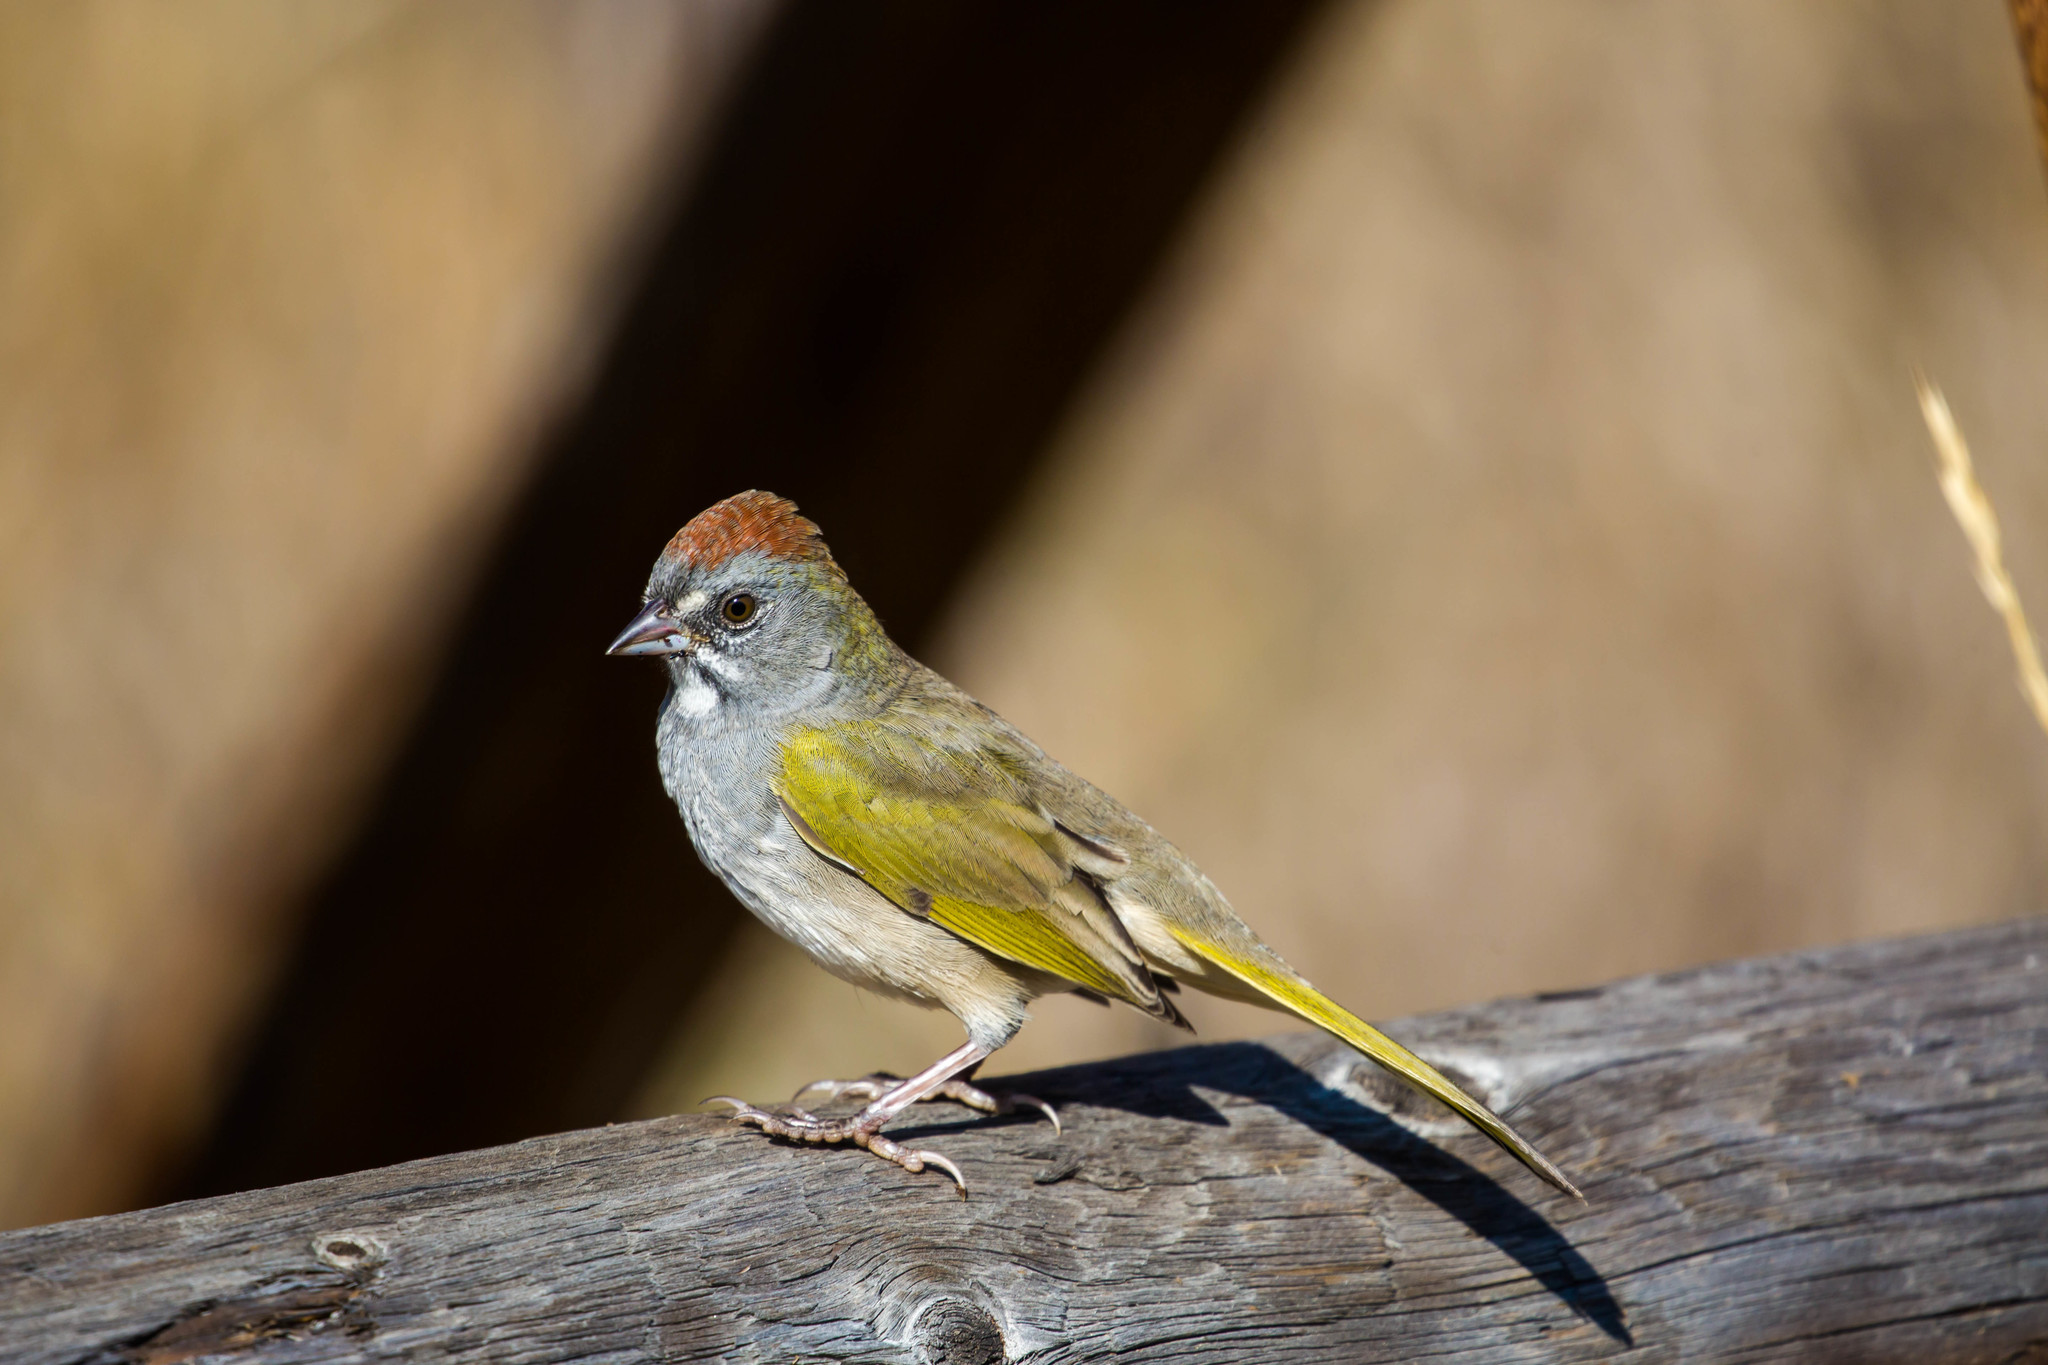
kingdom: Animalia
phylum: Chordata
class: Aves
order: Passeriformes
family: Passerellidae
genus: Pipilo
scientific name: Pipilo chlorurus
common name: Green-tailed towhee
